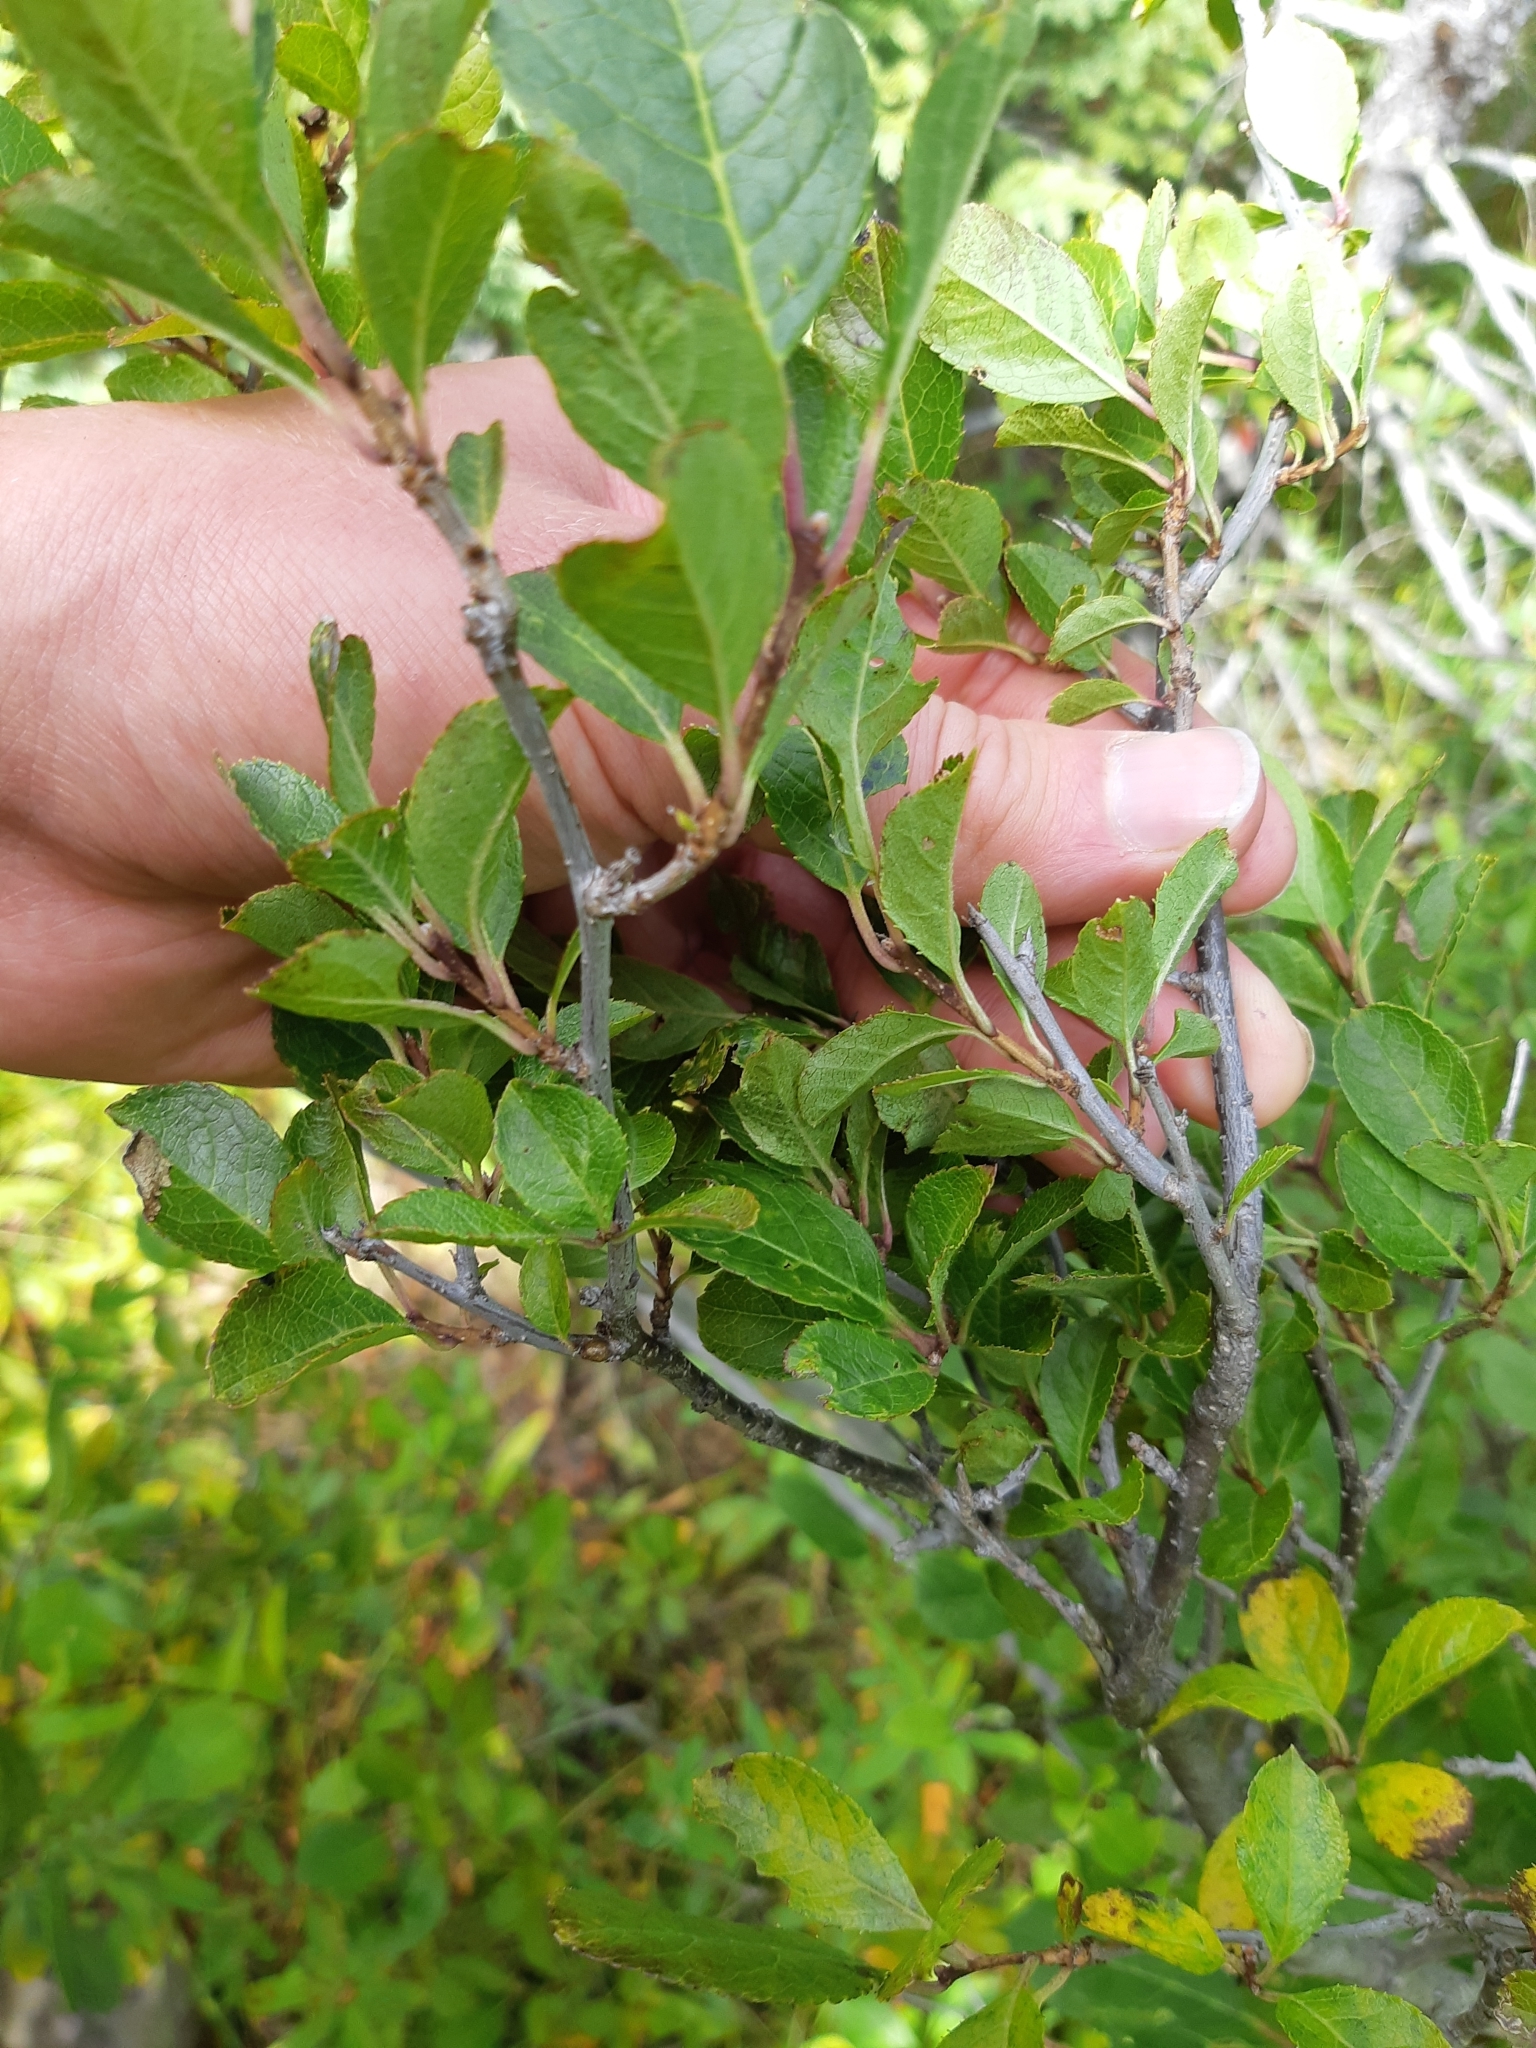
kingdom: Plantae
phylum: Tracheophyta
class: Magnoliopsida
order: Aquifoliales
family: Aquifoliaceae
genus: Ilex
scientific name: Ilex verticillata
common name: Virginia winterberry
